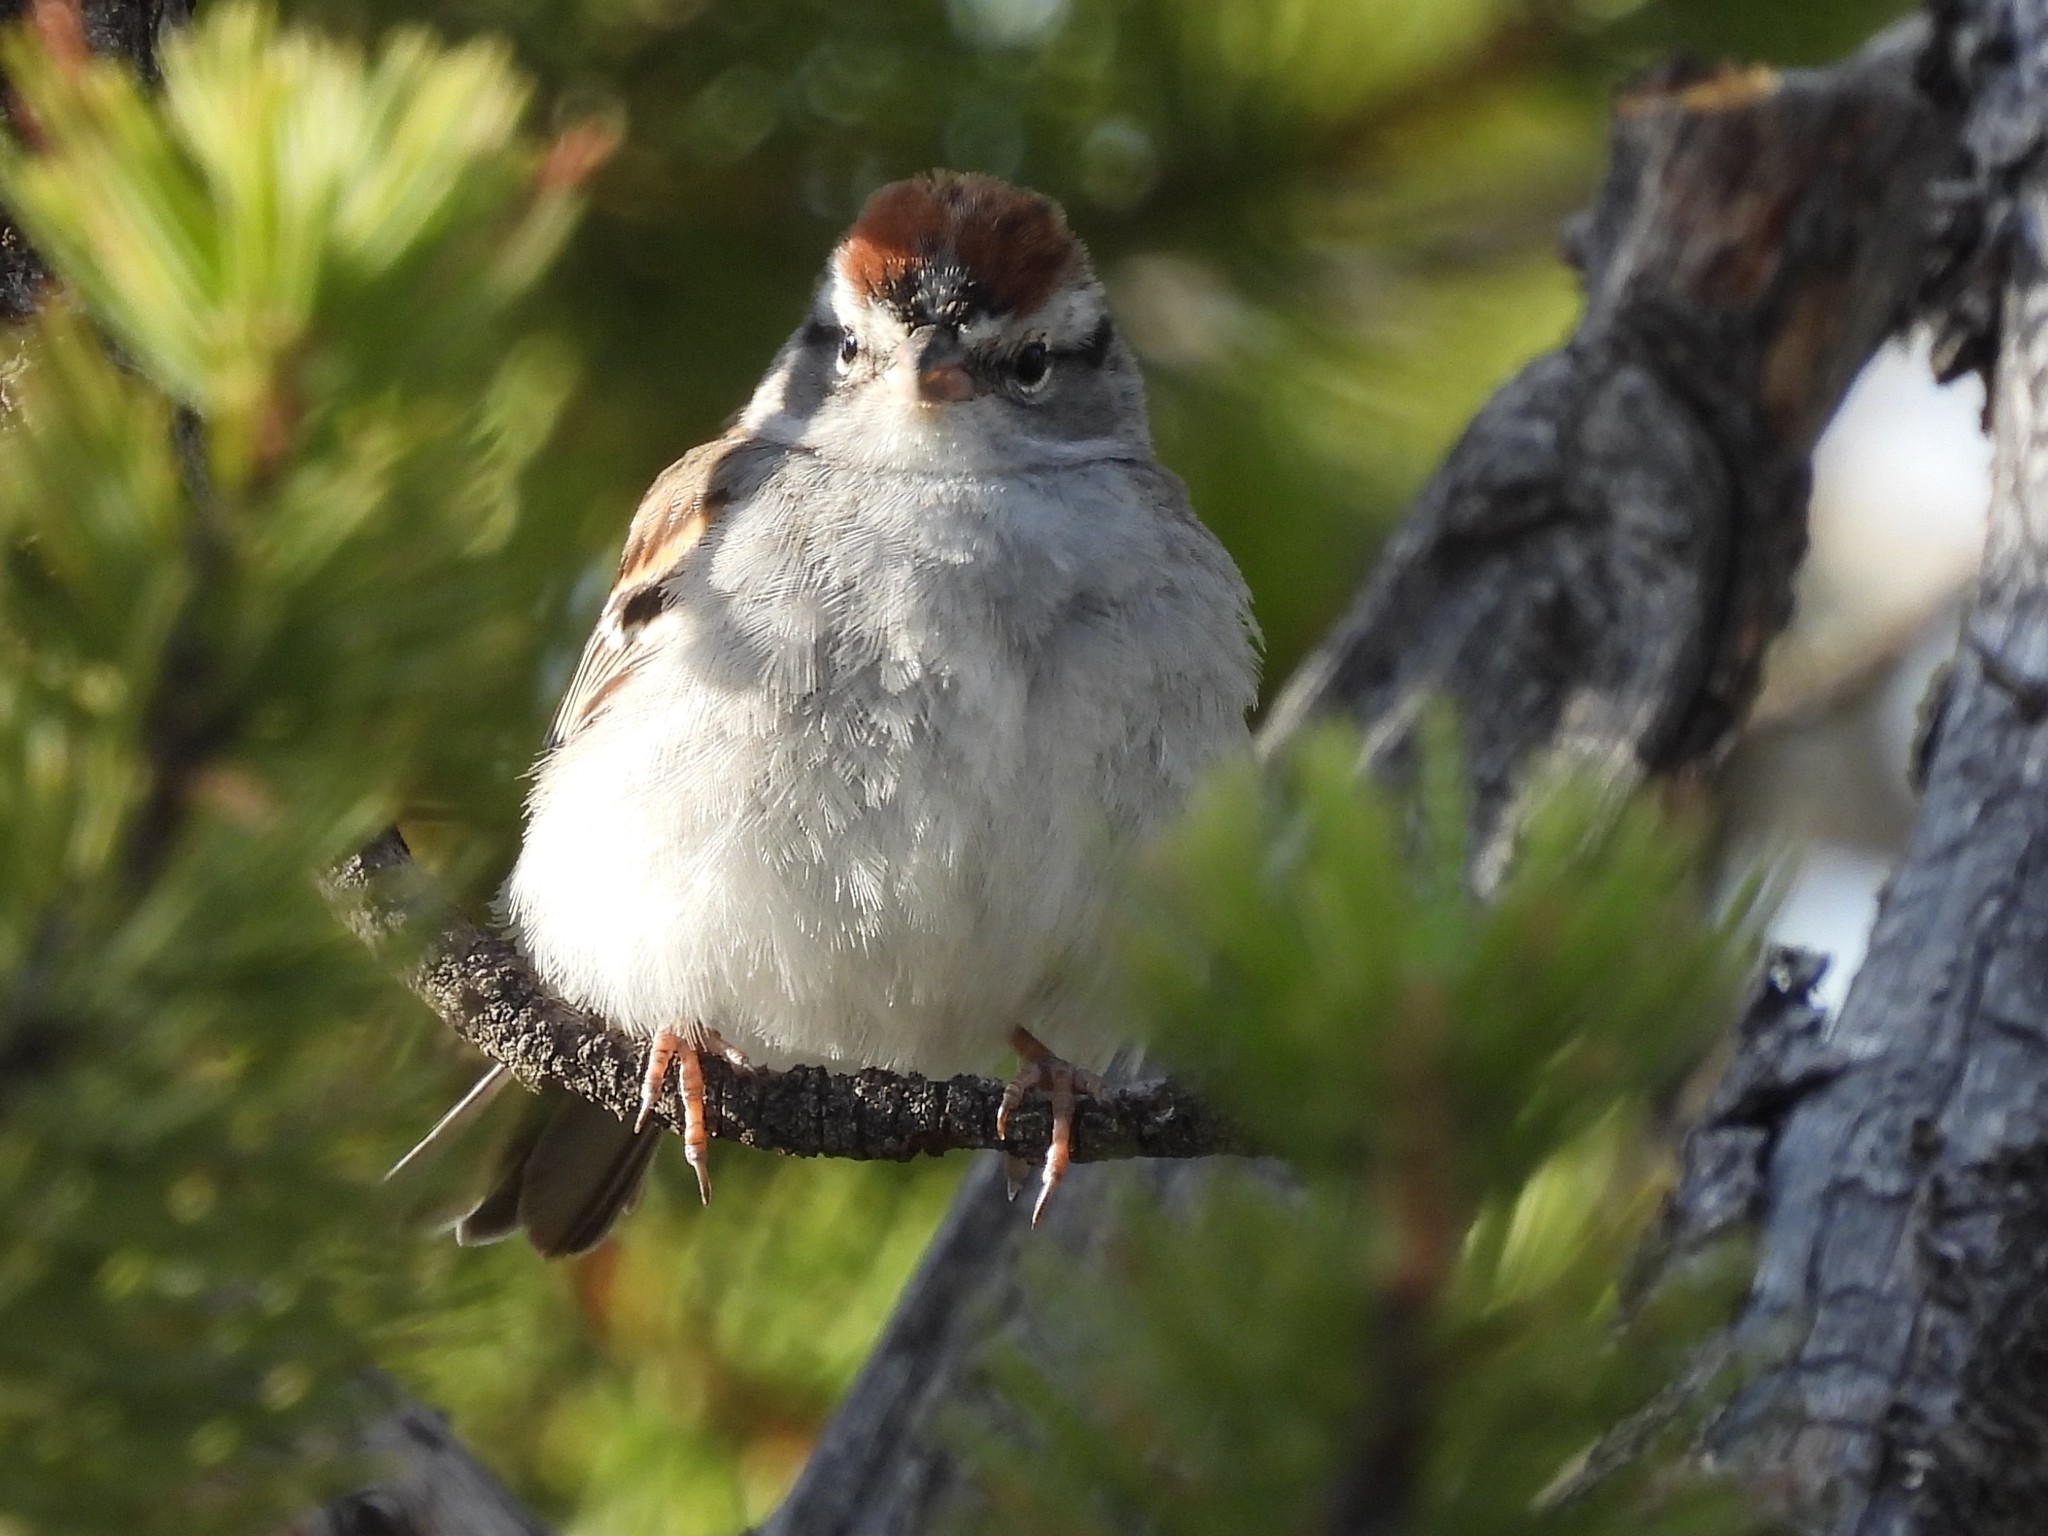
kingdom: Animalia
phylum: Chordata
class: Aves
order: Passeriformes
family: Passerellidae
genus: Spizella
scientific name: Spizella passerina
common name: Chipping sparrow
